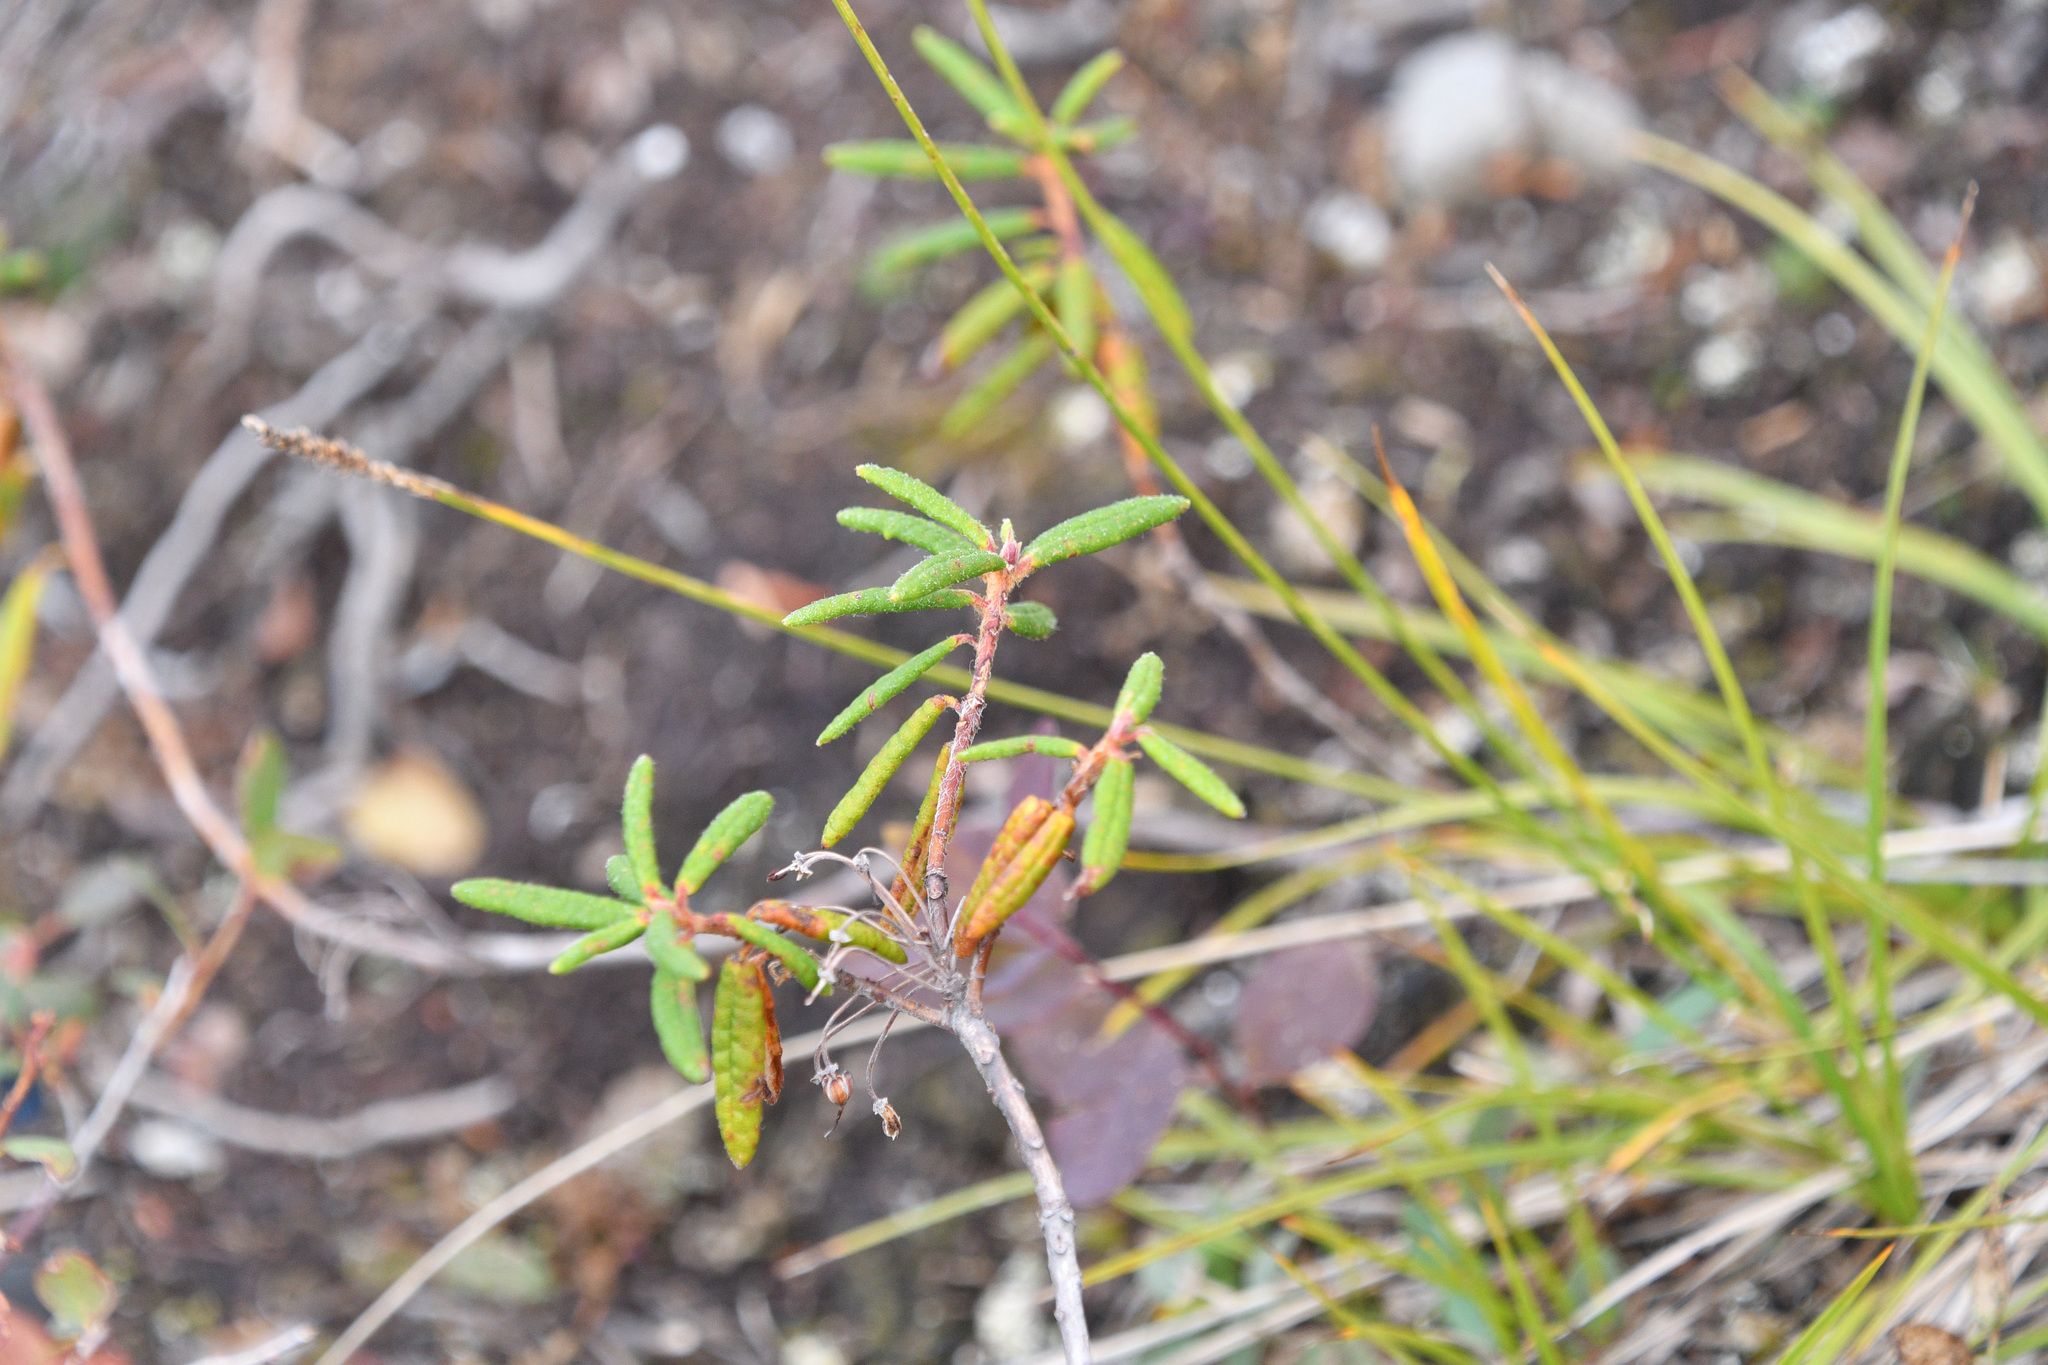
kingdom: Plantae
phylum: Tracheophyta
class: Magnoliopsida
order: Ericales
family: Ericaceae
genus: Rhododendron
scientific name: Rhododendron groenlandicum
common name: Bog labrador tea
